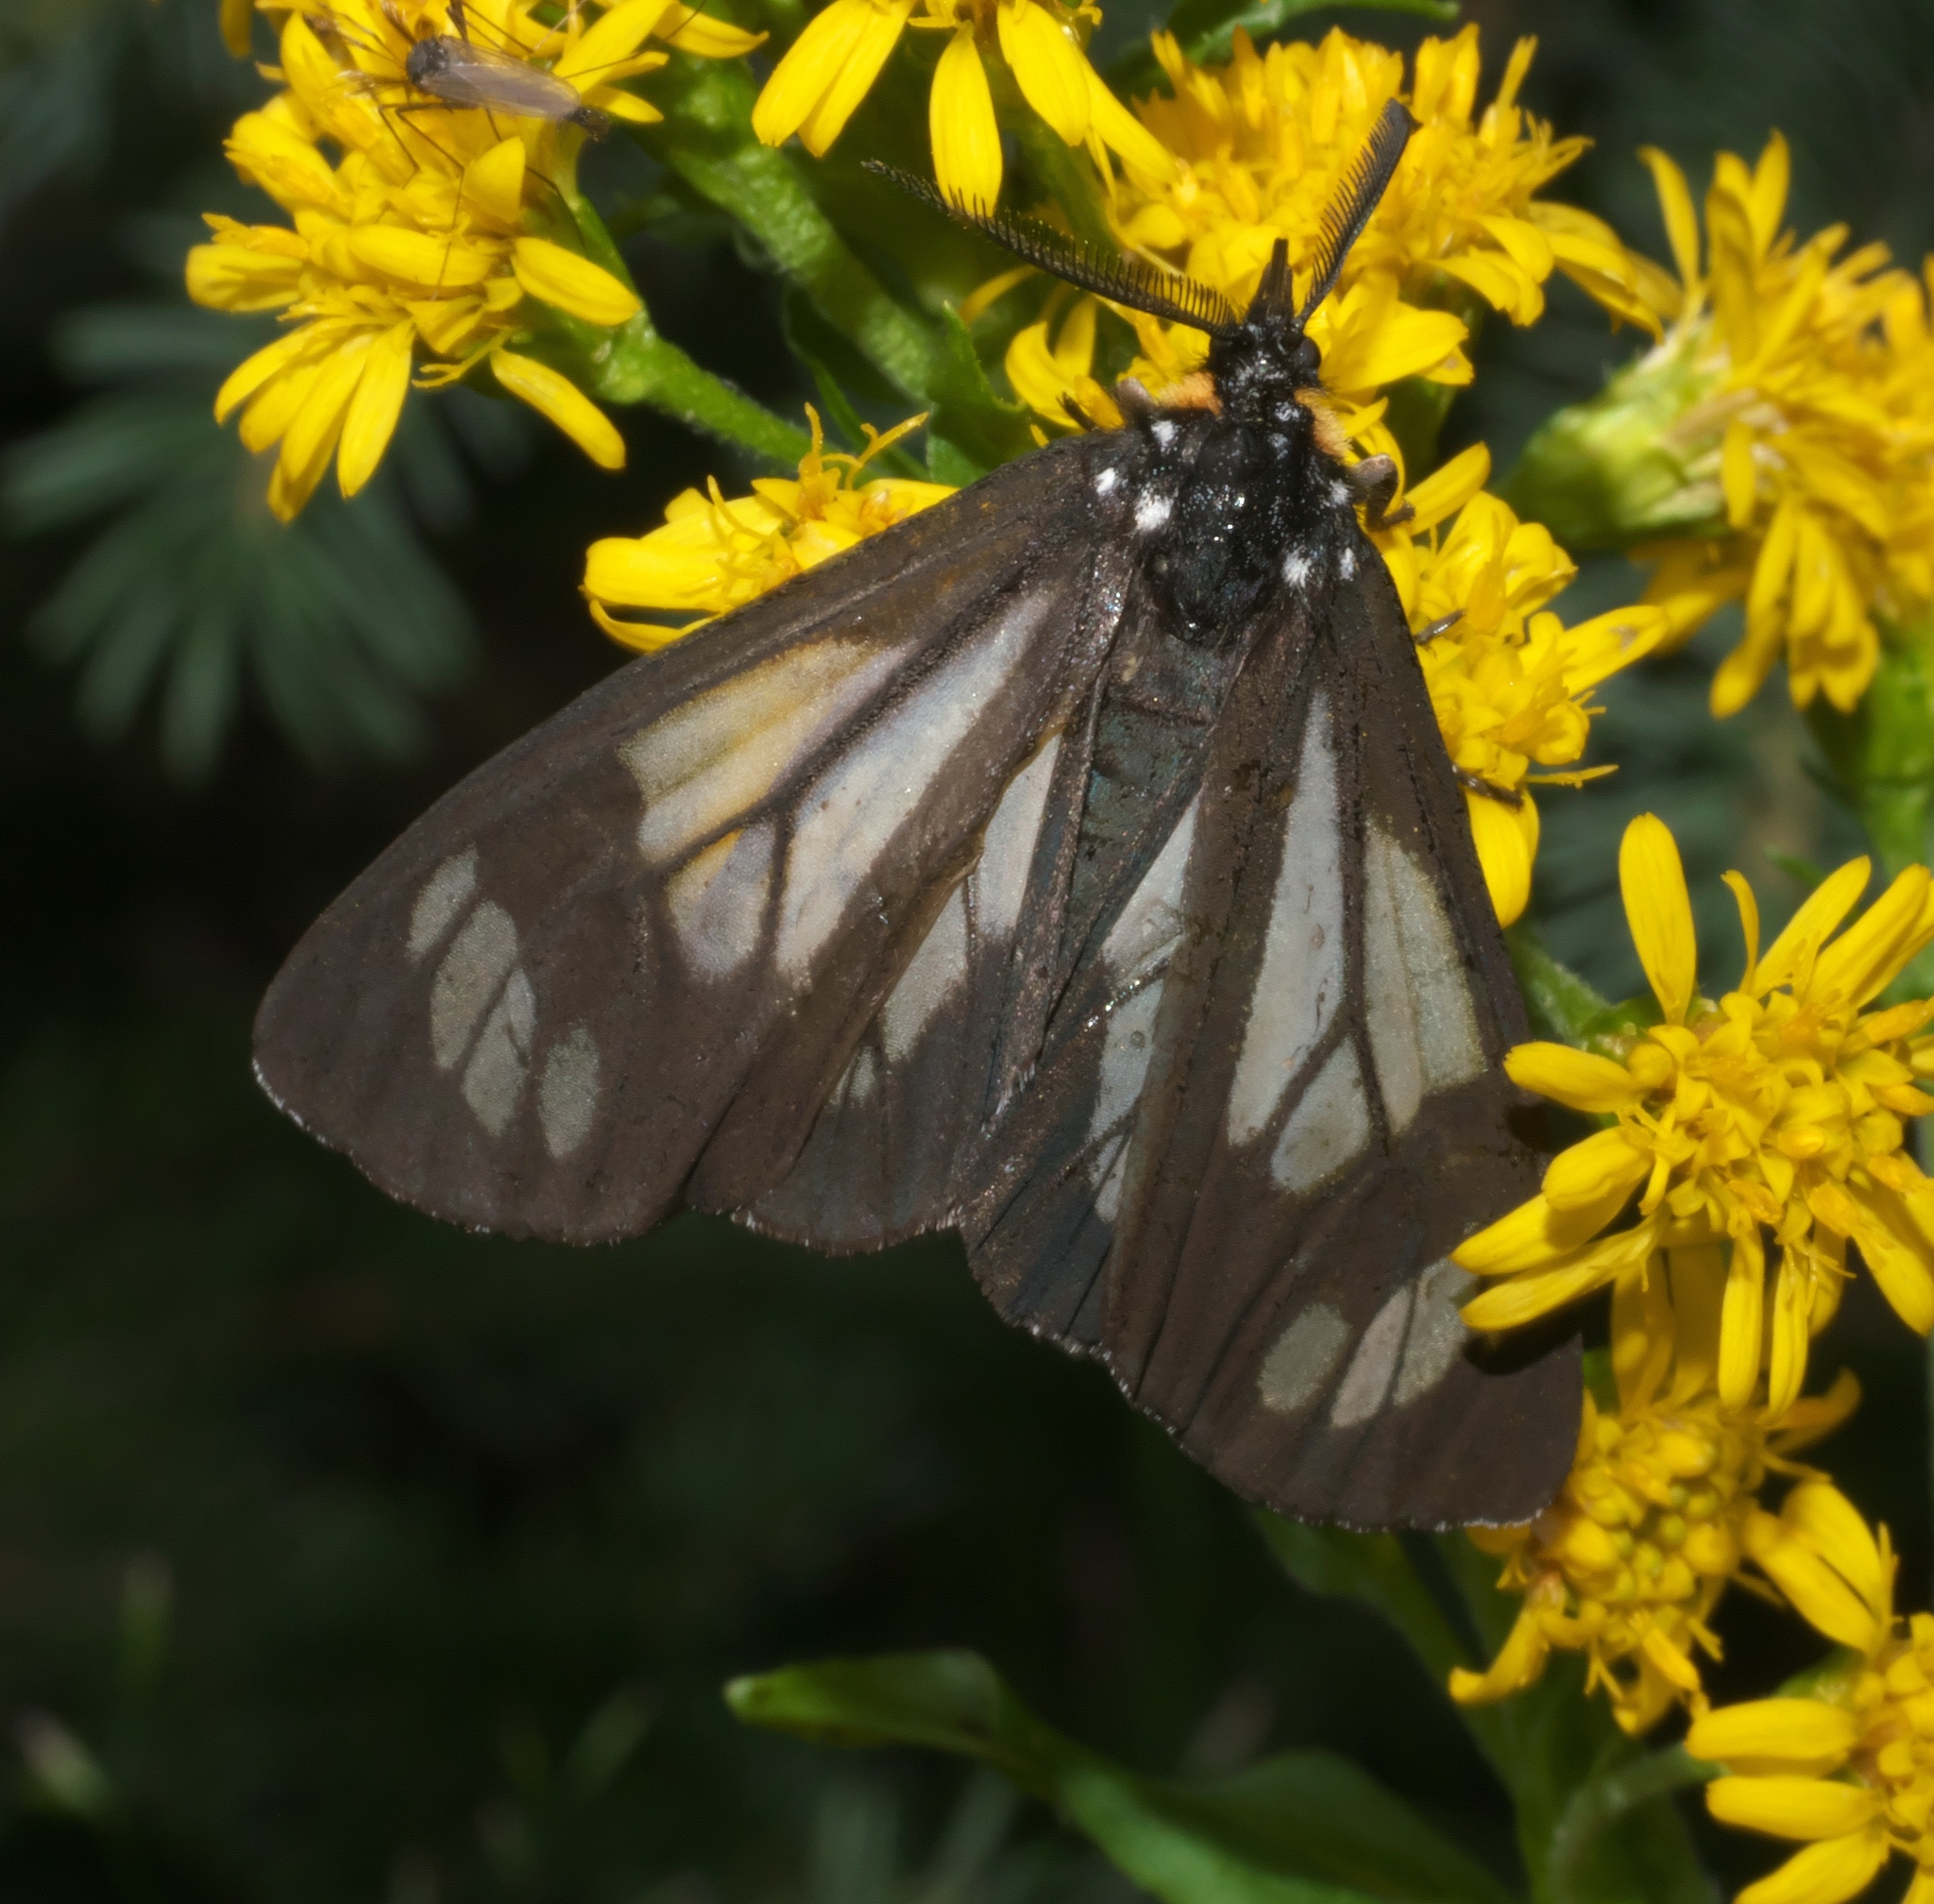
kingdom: Animalia
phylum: Arthropoda
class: Insecta
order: Lepidoptera
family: Erebidae
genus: Gnophaela
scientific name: Gnophaela vermiculata
